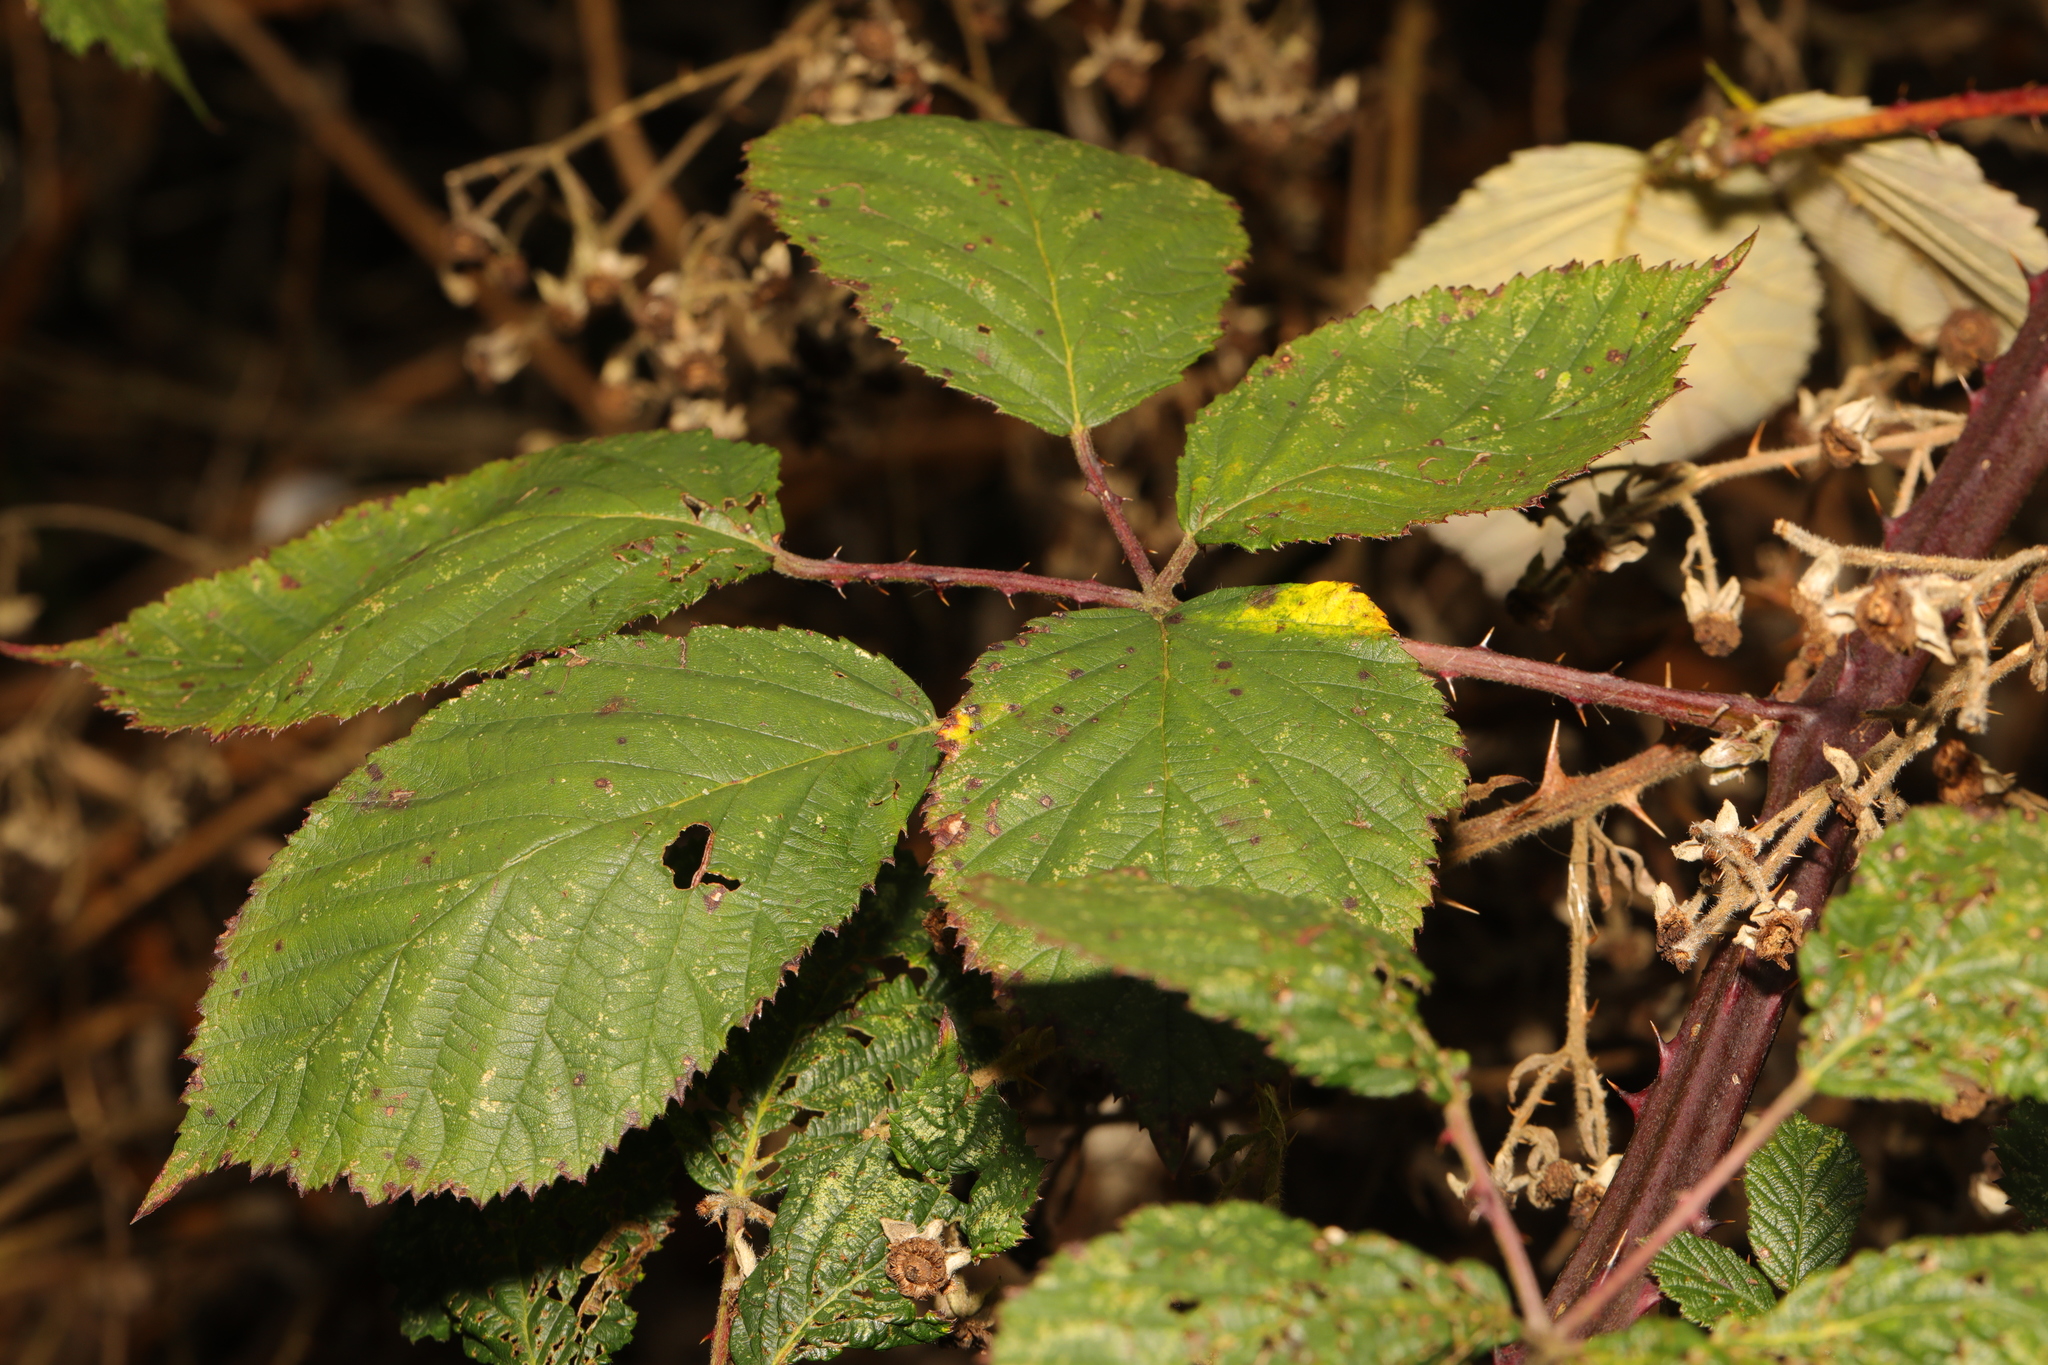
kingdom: Plantae
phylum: Tracheophyta
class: Magnoliopsida
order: Rosales
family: Rosaceae
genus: Rubus
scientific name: Rubus armeniacus
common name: Himalayan blackberry
